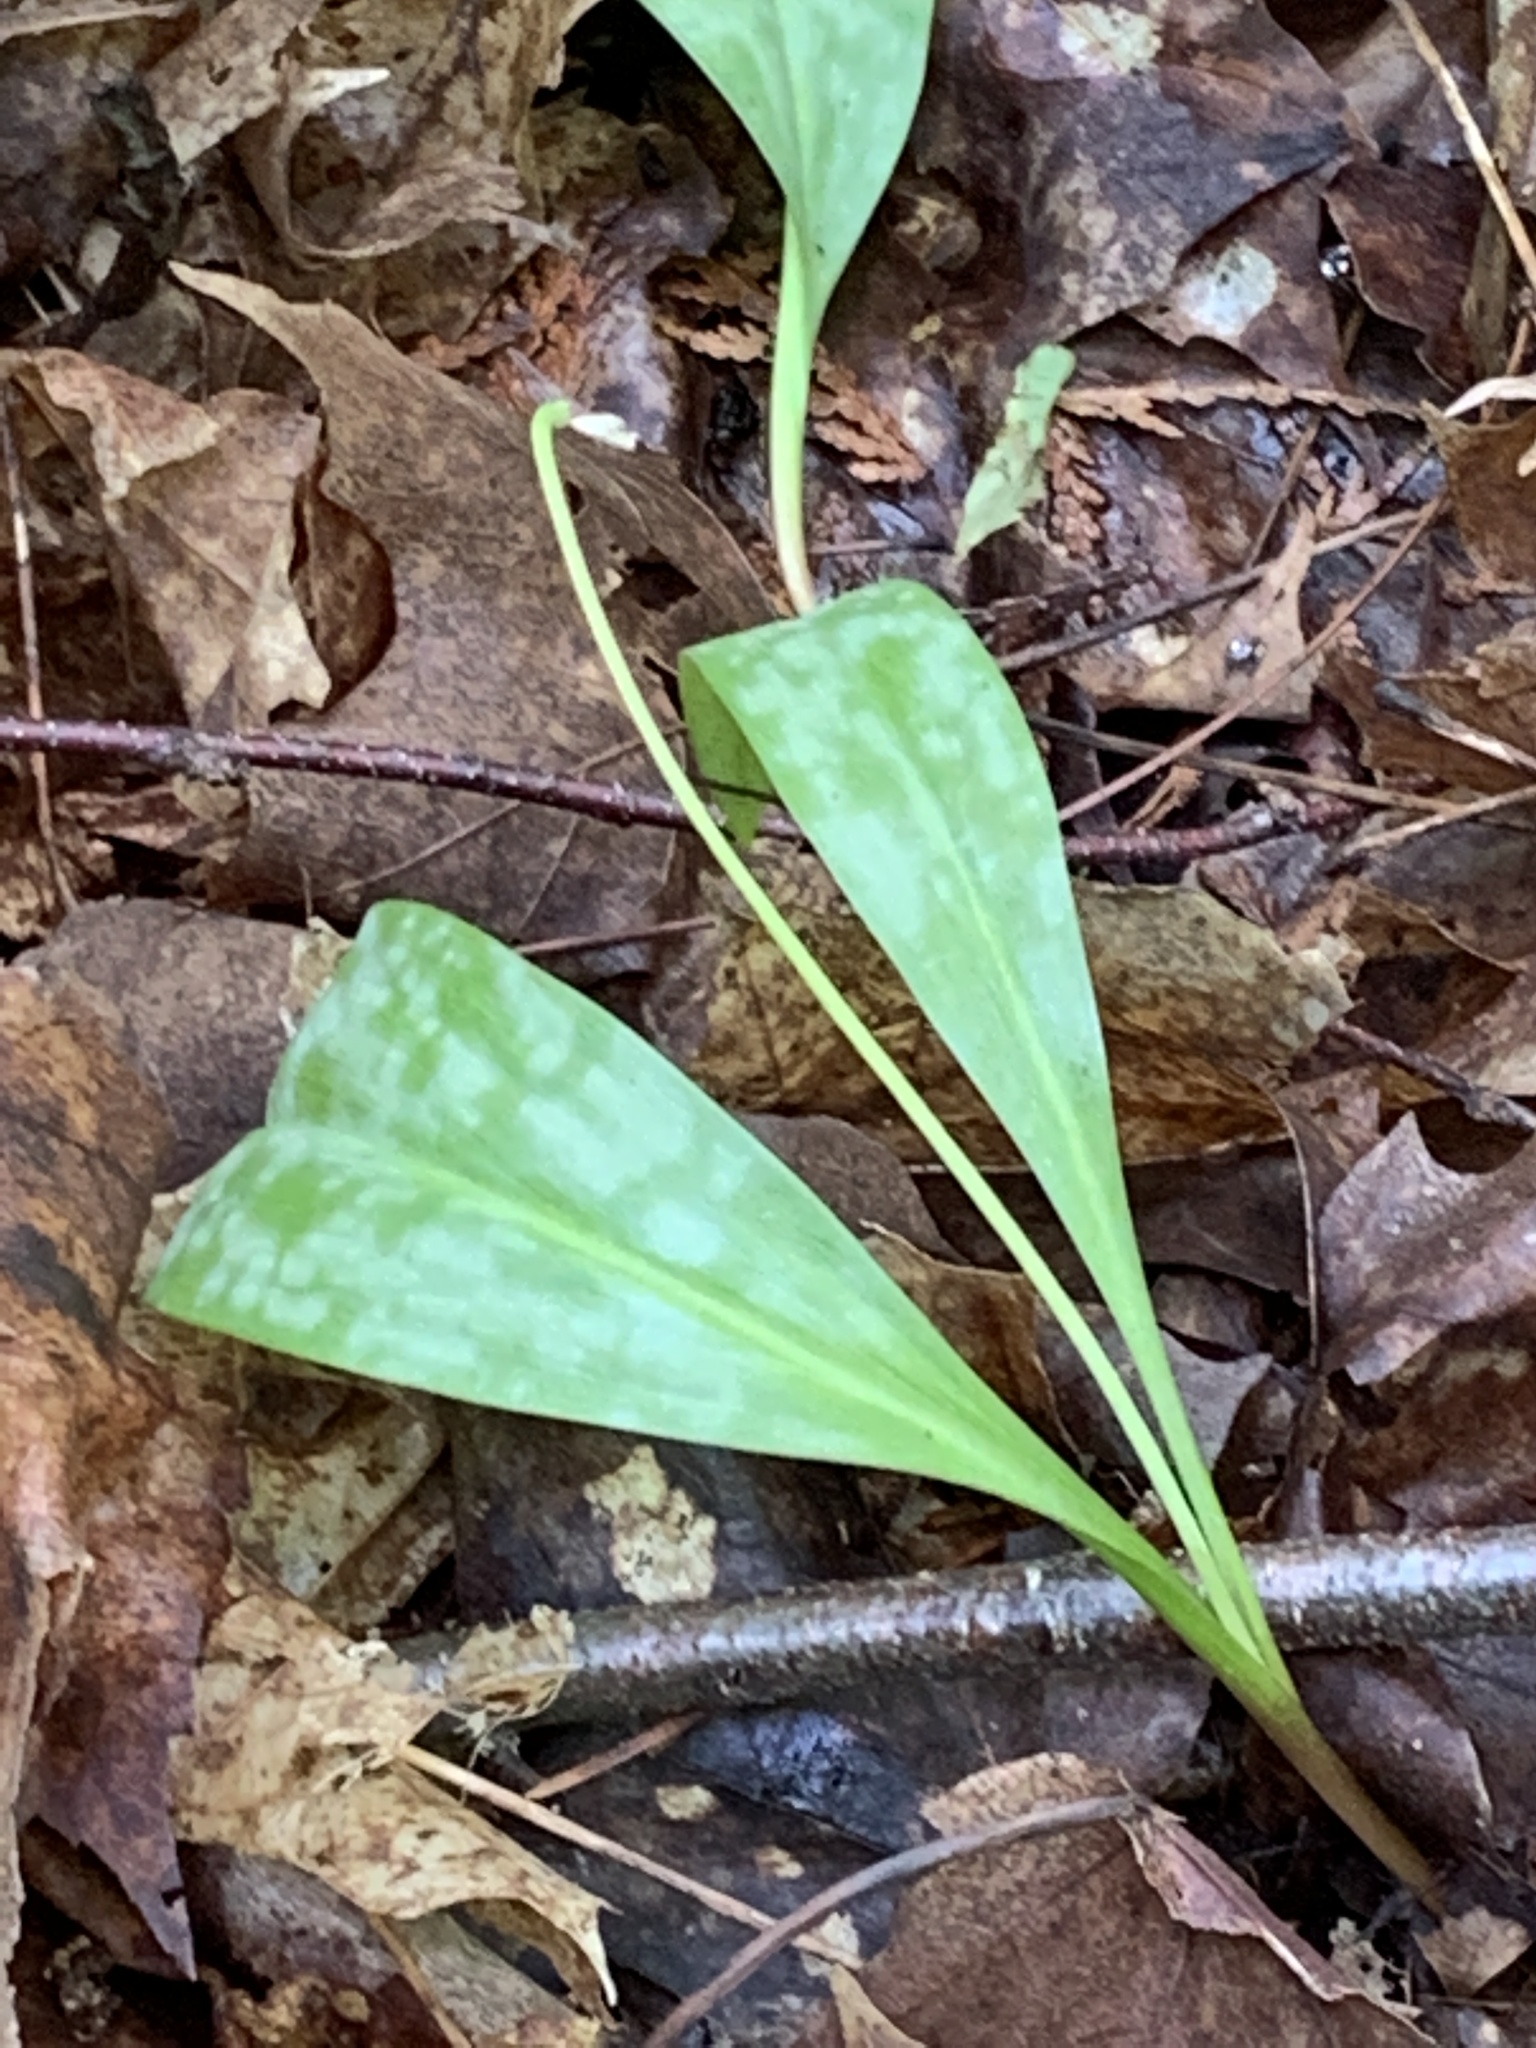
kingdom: Plantae
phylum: Tracheophyta
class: Liliopsida
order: Liliales
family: Liliaceae
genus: Erythronium
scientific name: Erythronium americanum
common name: Yellow adder's-tongue
